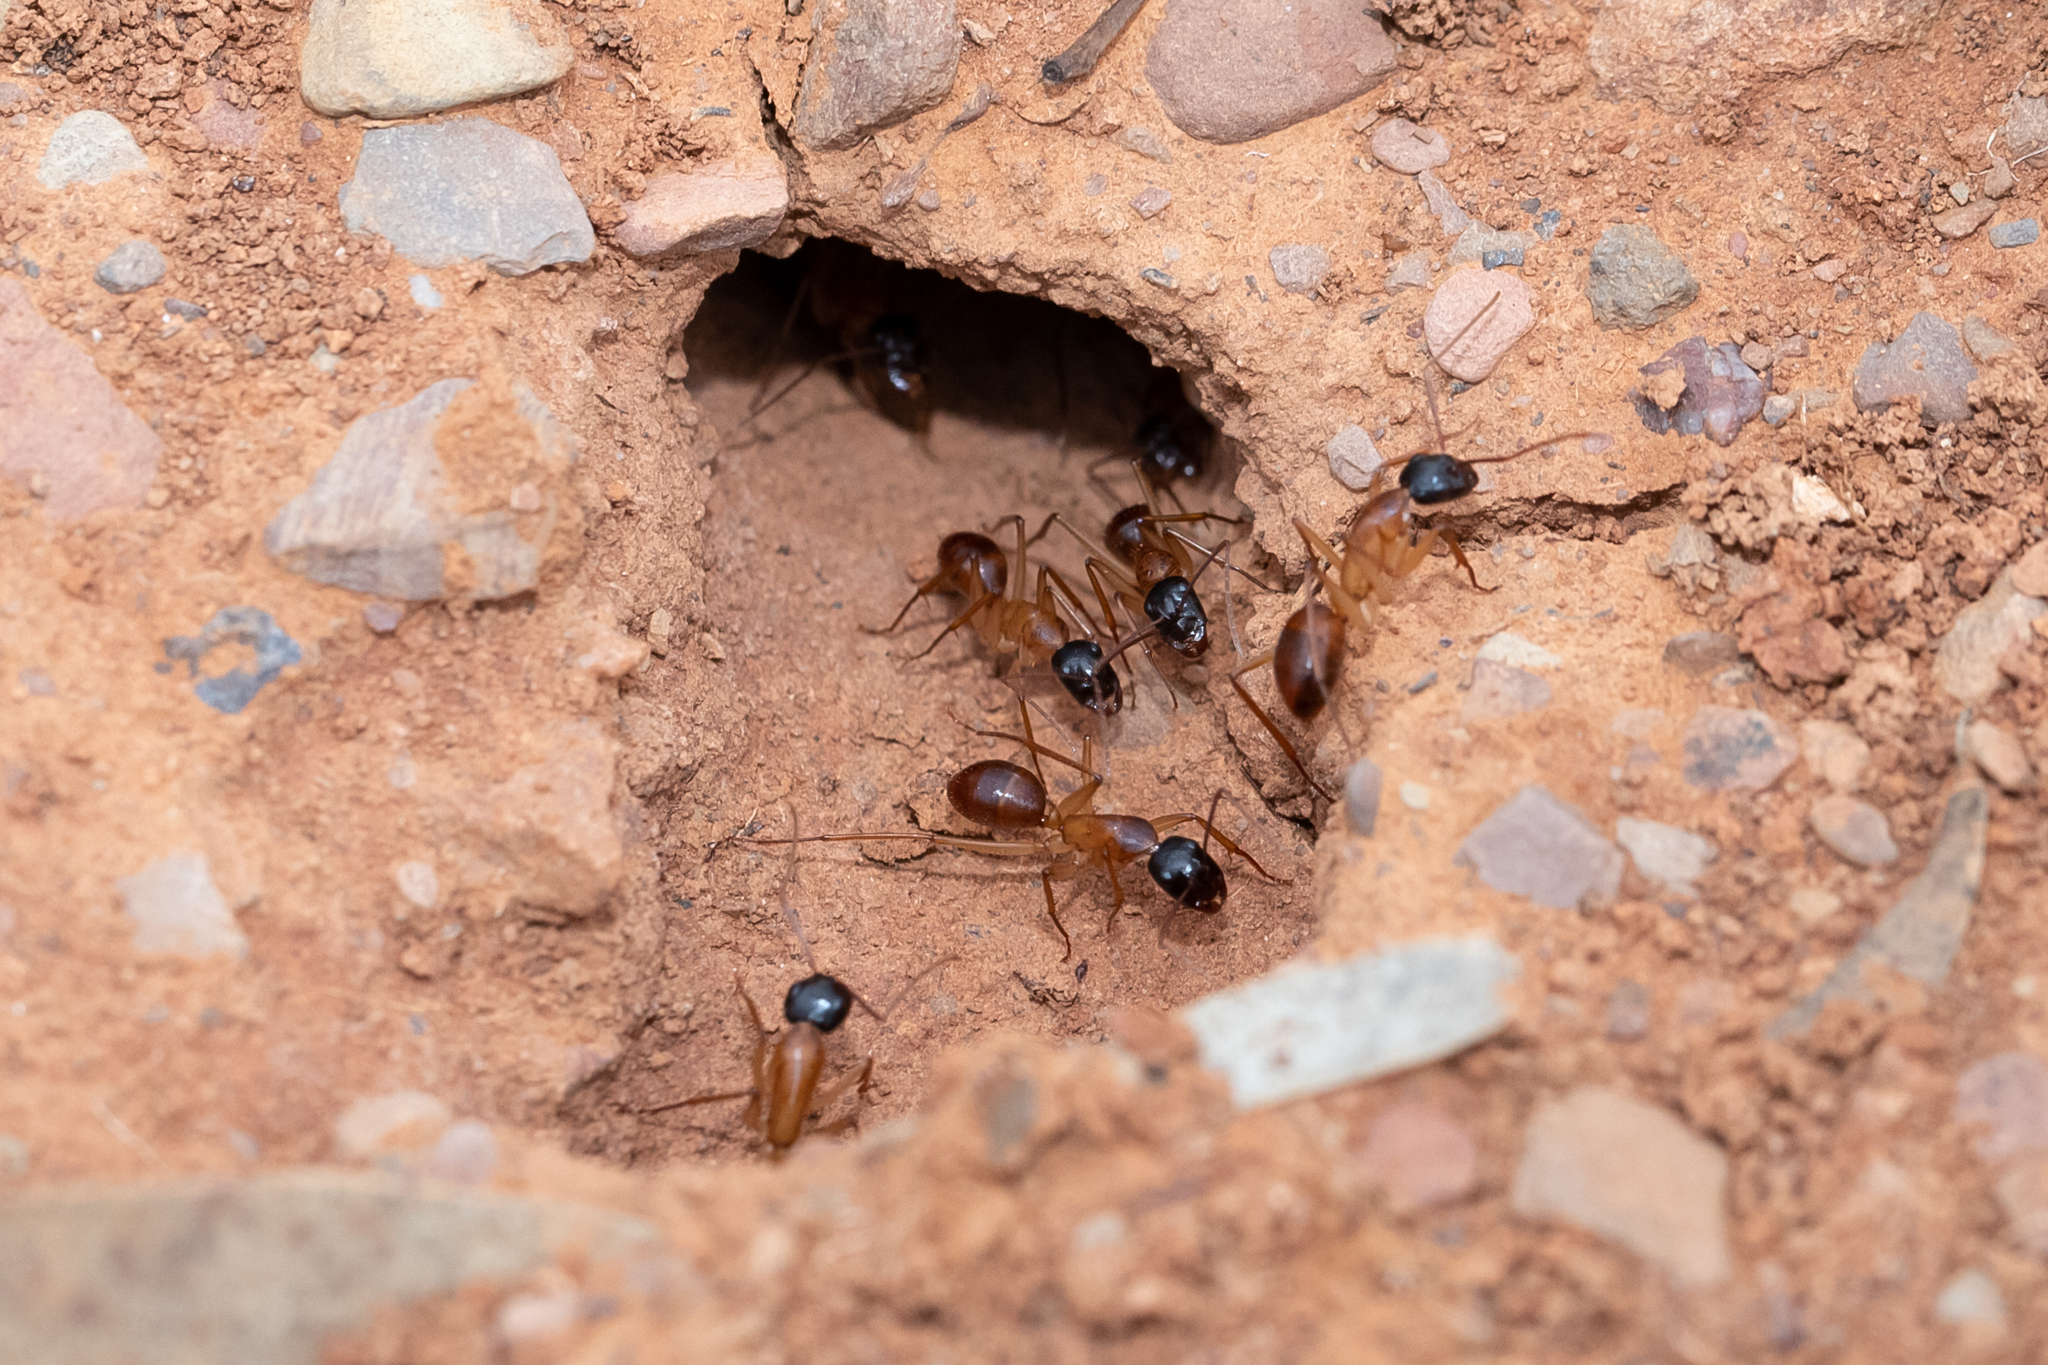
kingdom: Animalia
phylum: Arthropoda
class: Insecta
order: Hymenoptera
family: Formicidae
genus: Camponotus
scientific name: Camponotus nigriceps
